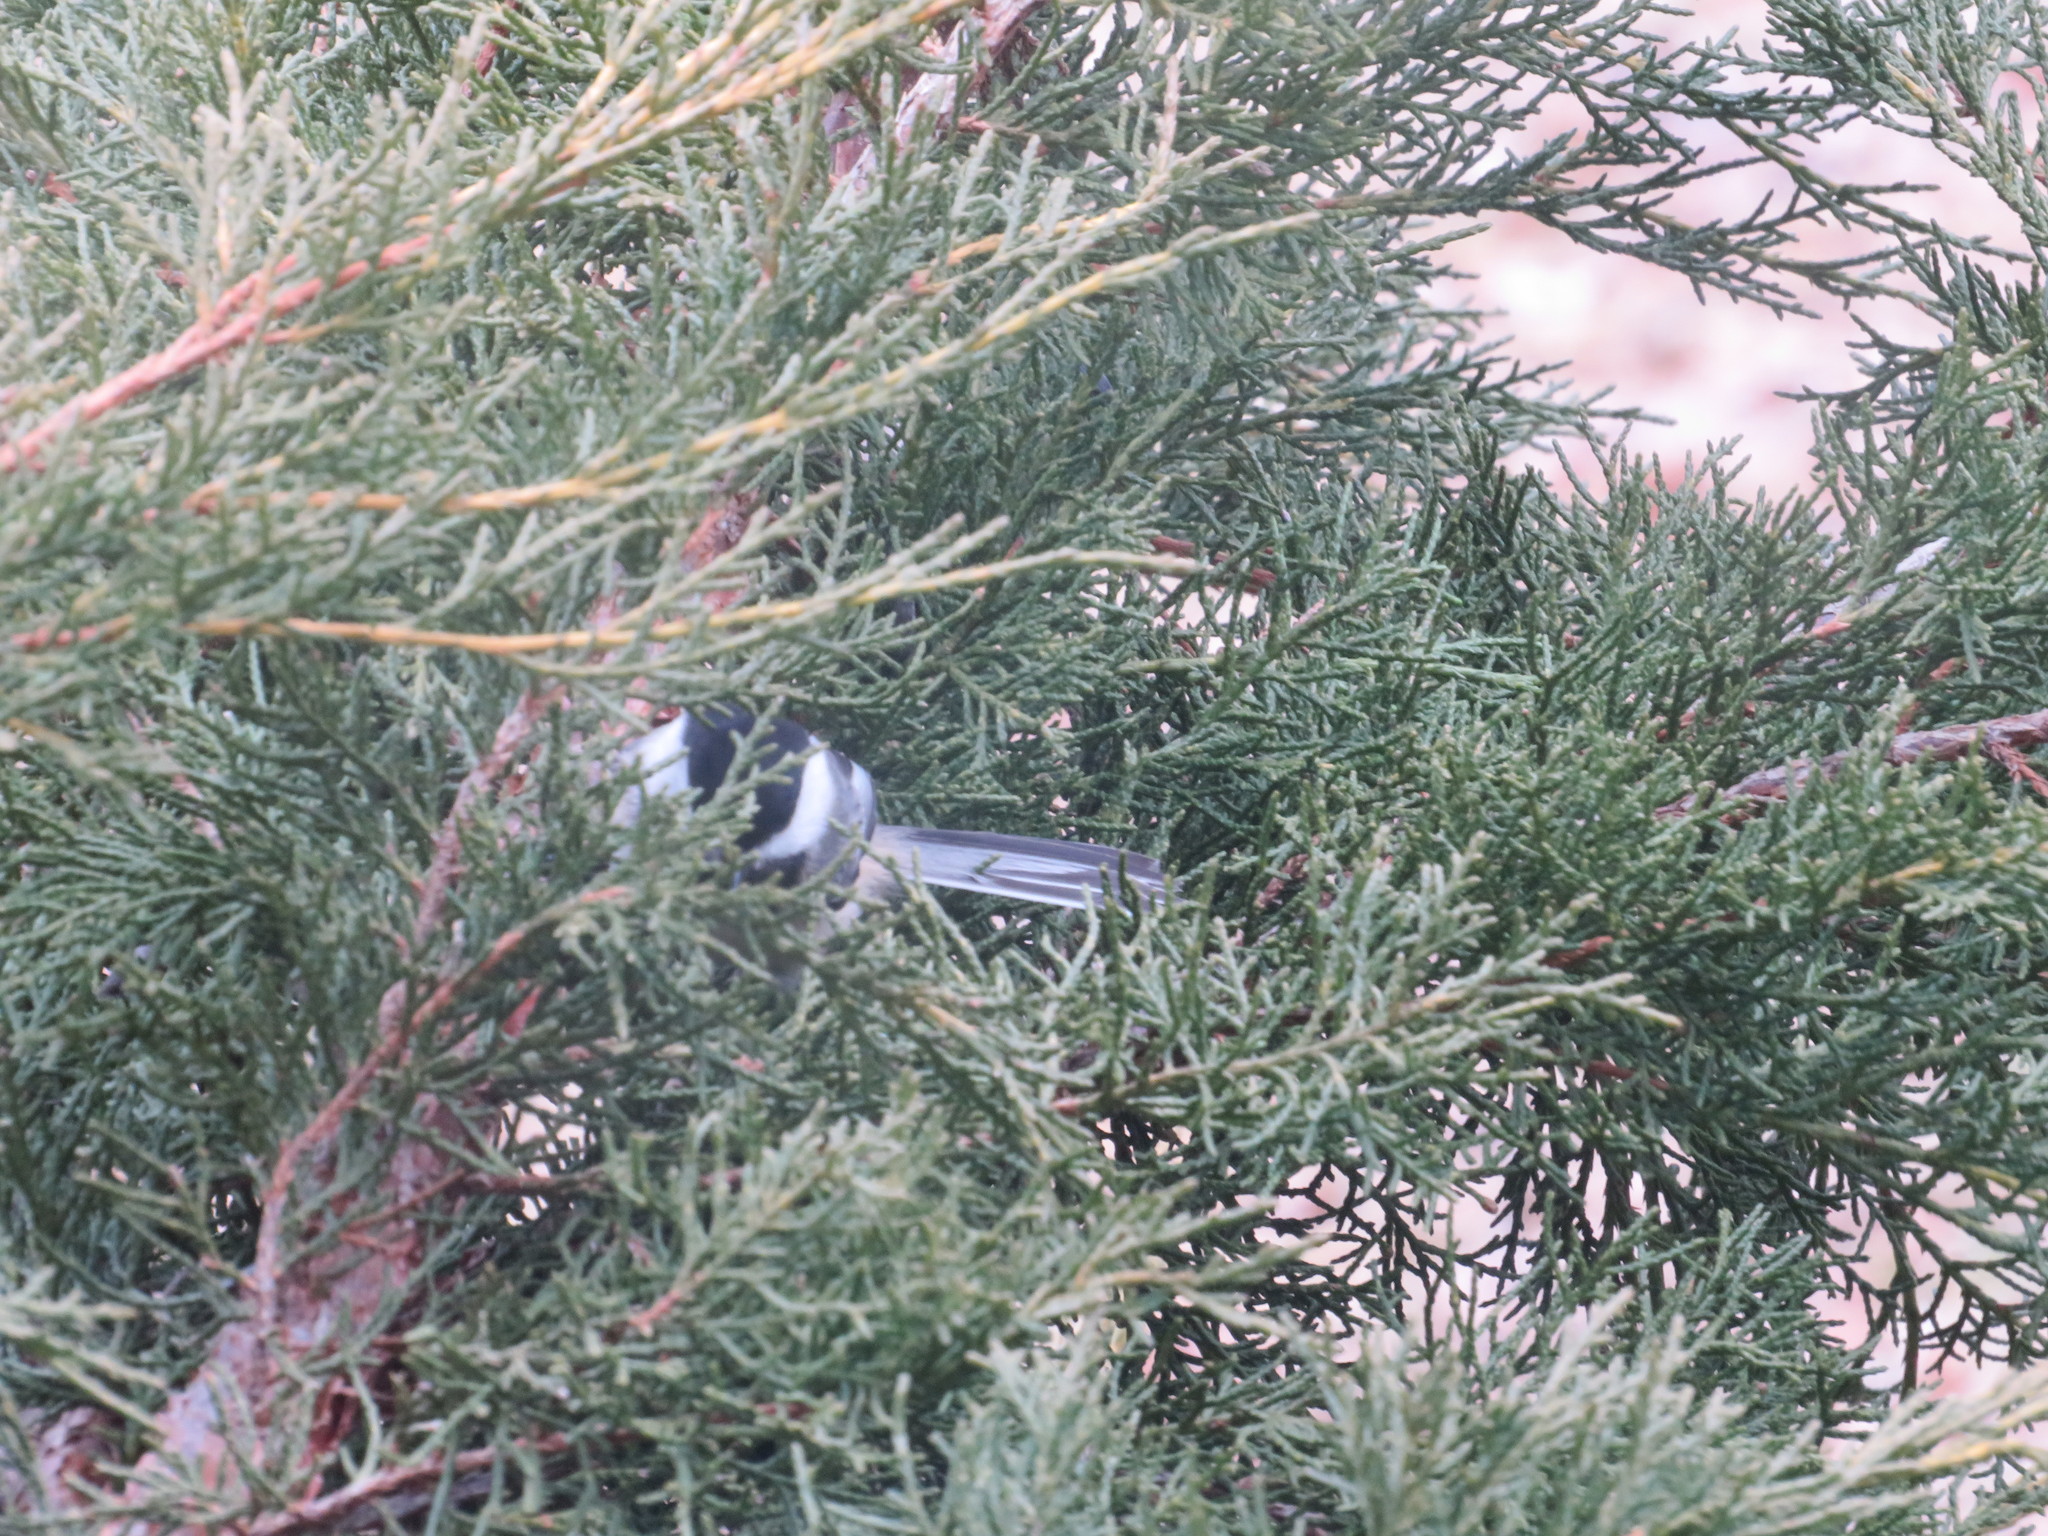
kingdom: Animalia
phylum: Chordata
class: Aves
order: Passeriformes
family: Paridae
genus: Poecile
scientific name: Poecile atricapillus
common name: Black-capped chickadee
